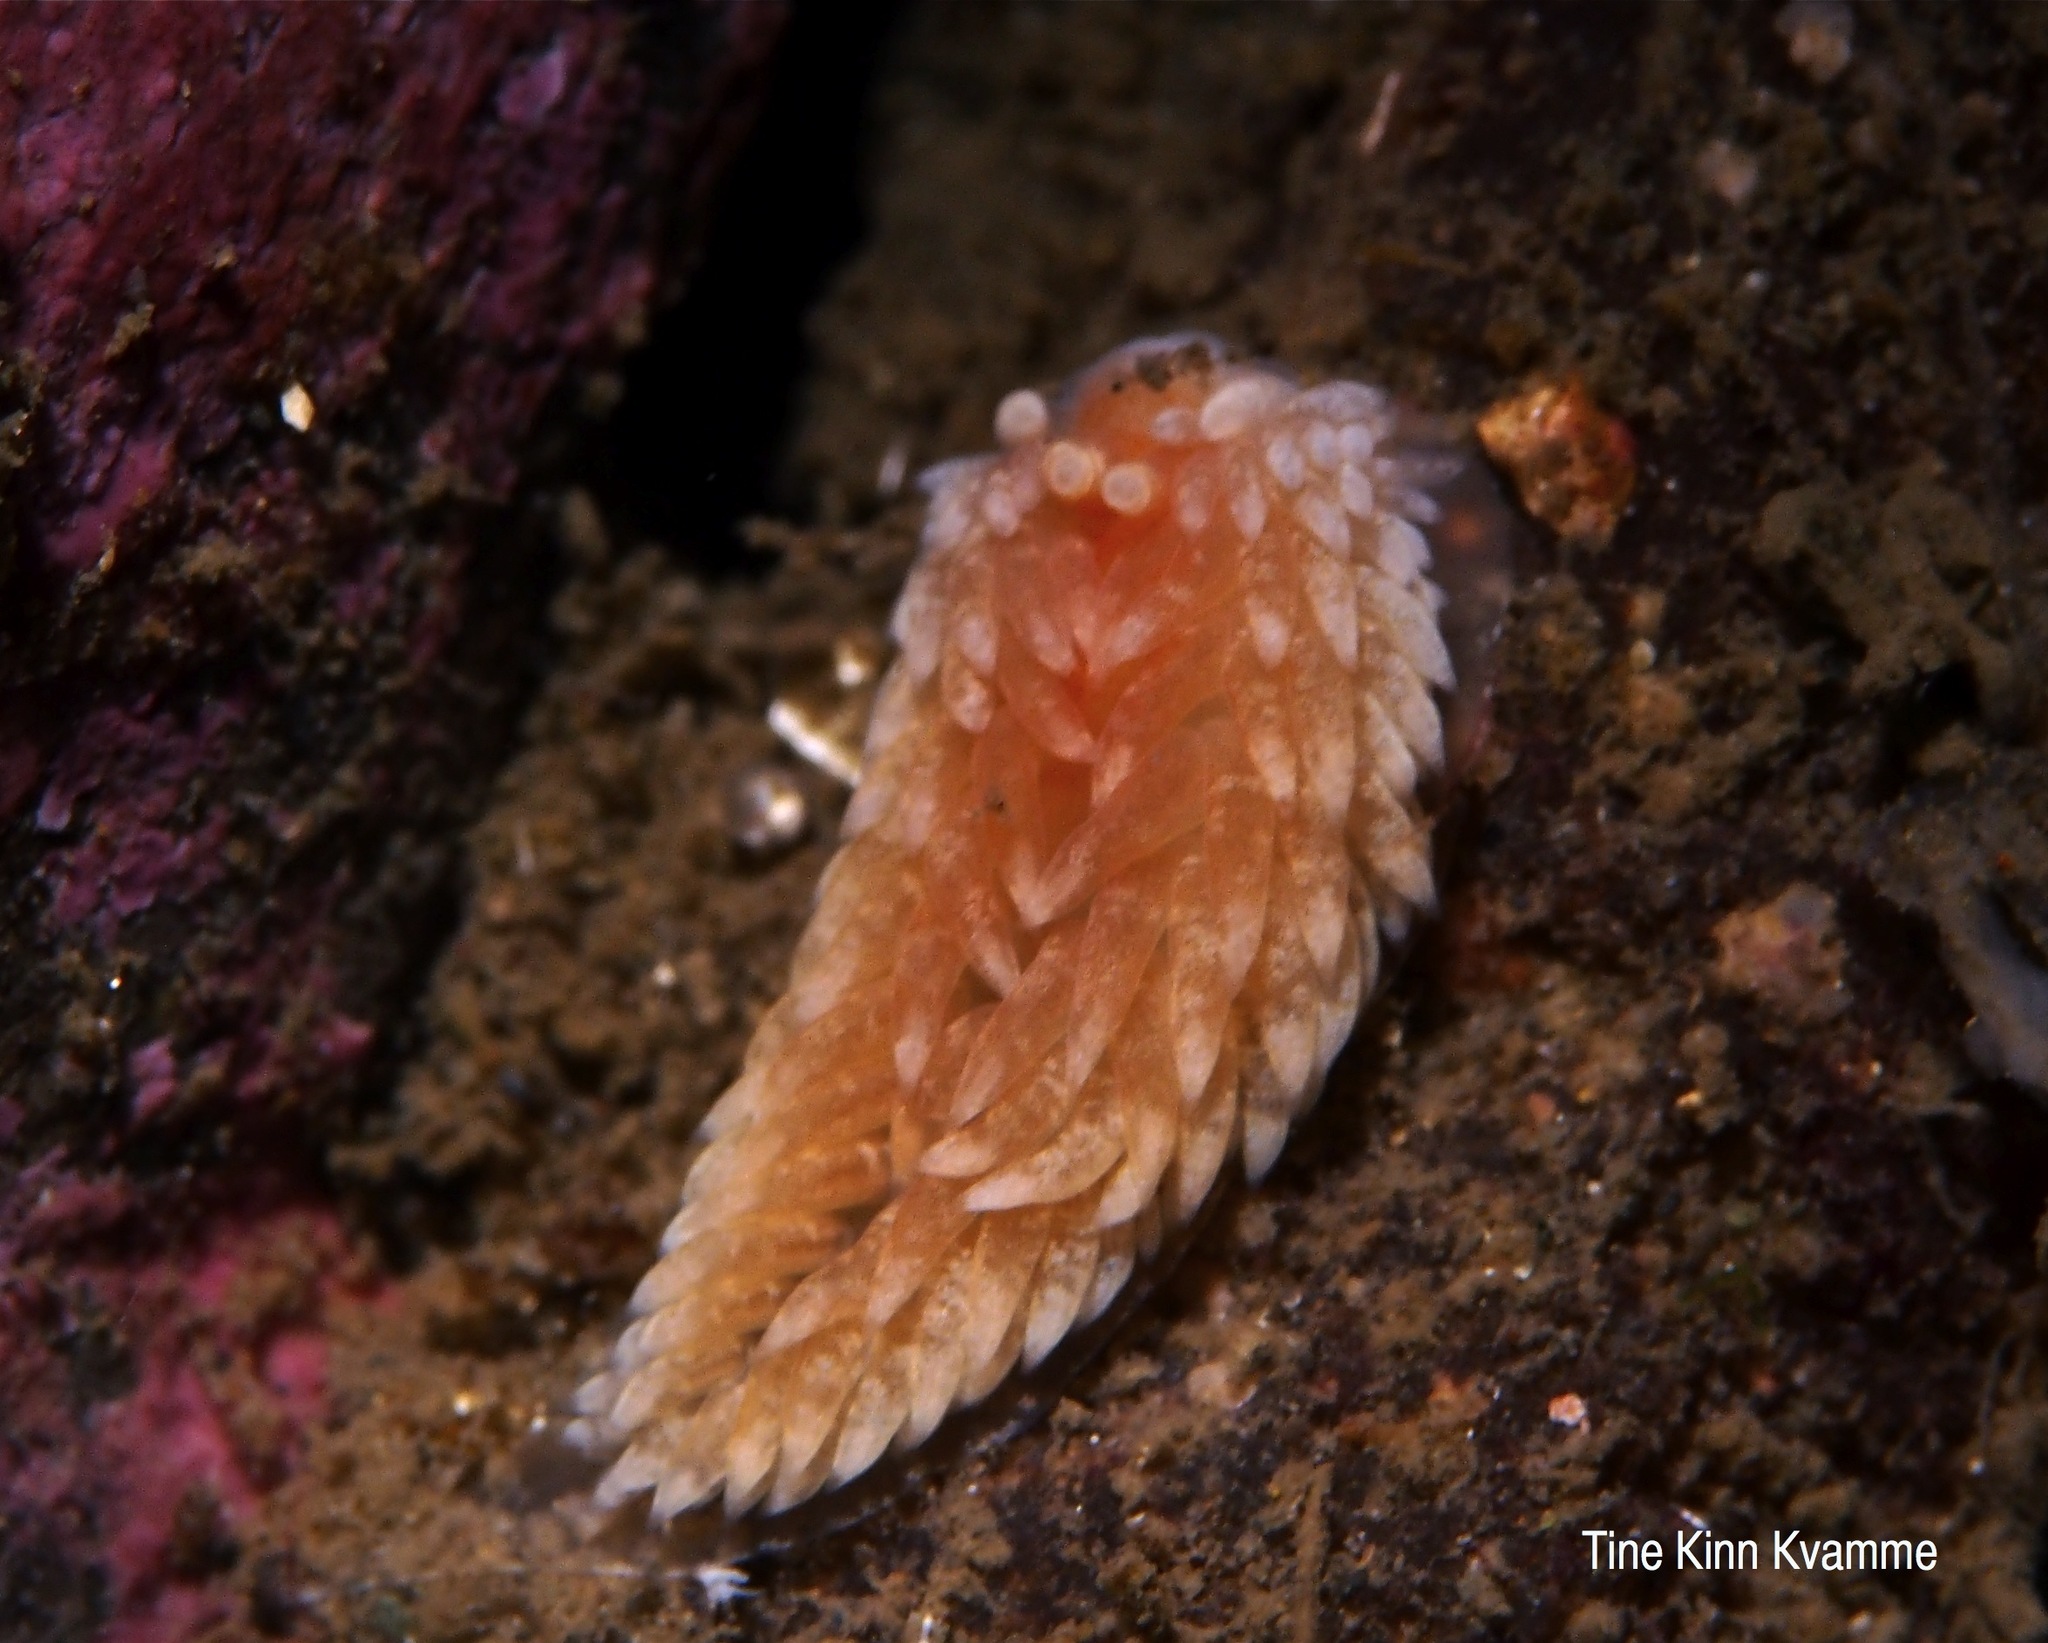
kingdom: Animalia
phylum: Mollusca
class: Gastropoda
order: Nudibranchia
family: Aeolidiidae
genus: Aeolidiella
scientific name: Aeolidiella glauca
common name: Orange-brown aeolid
